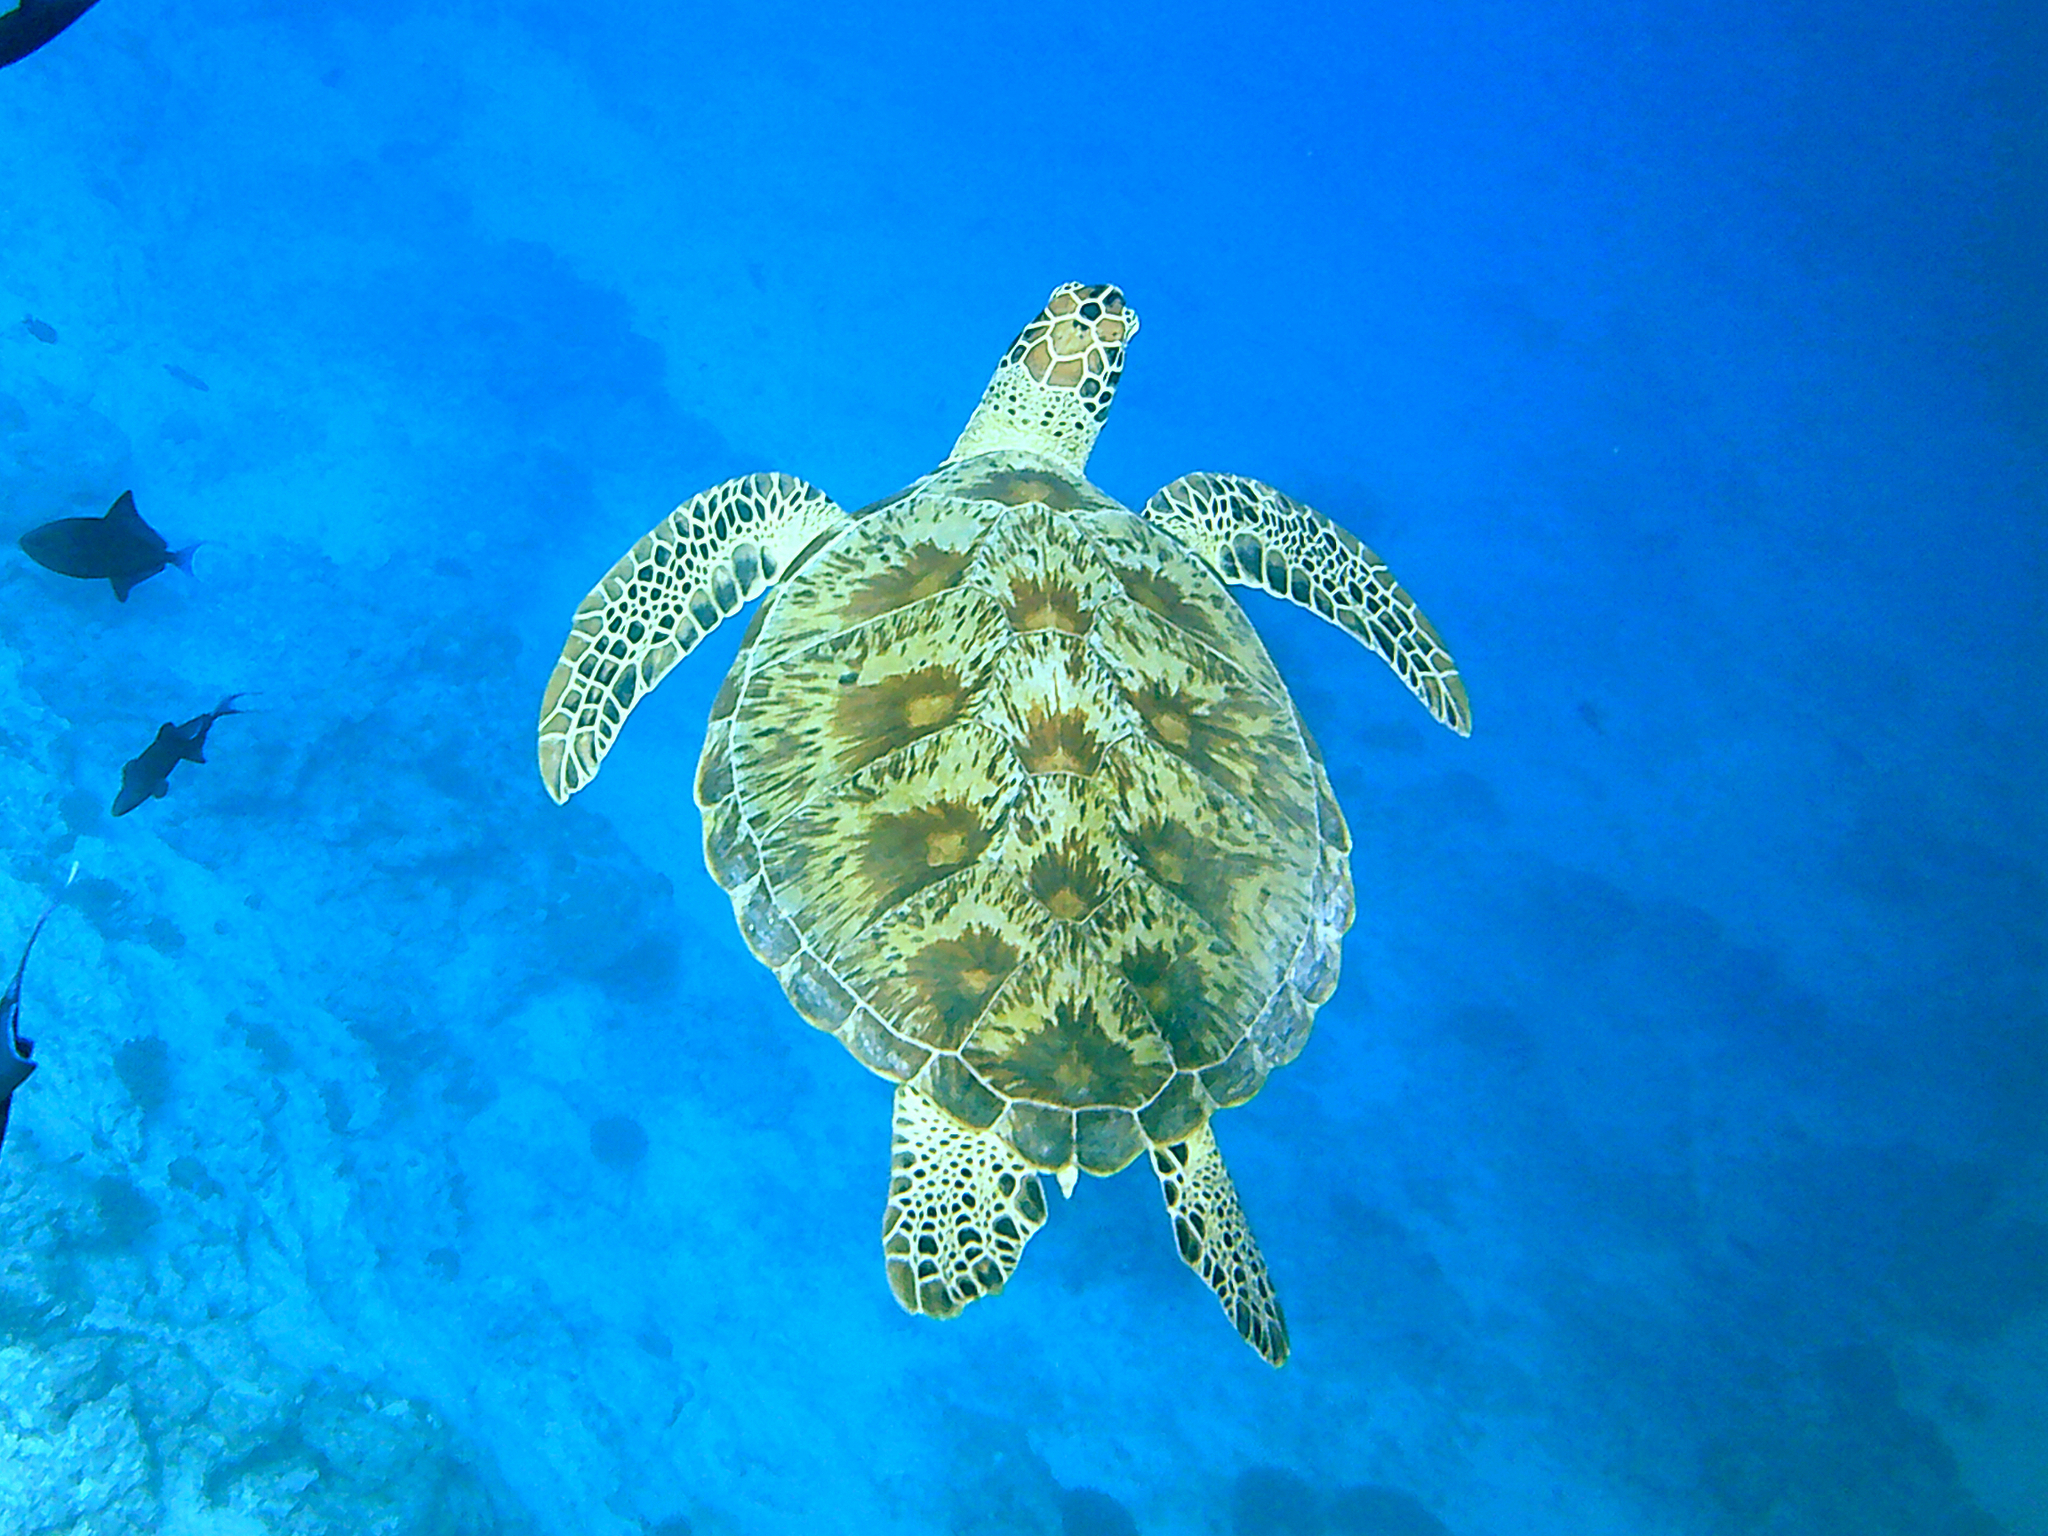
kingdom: Animalia
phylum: Chordata
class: Testudines
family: Cheloniidae
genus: Chelonia
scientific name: Chelonia mydas
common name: Green turtle
